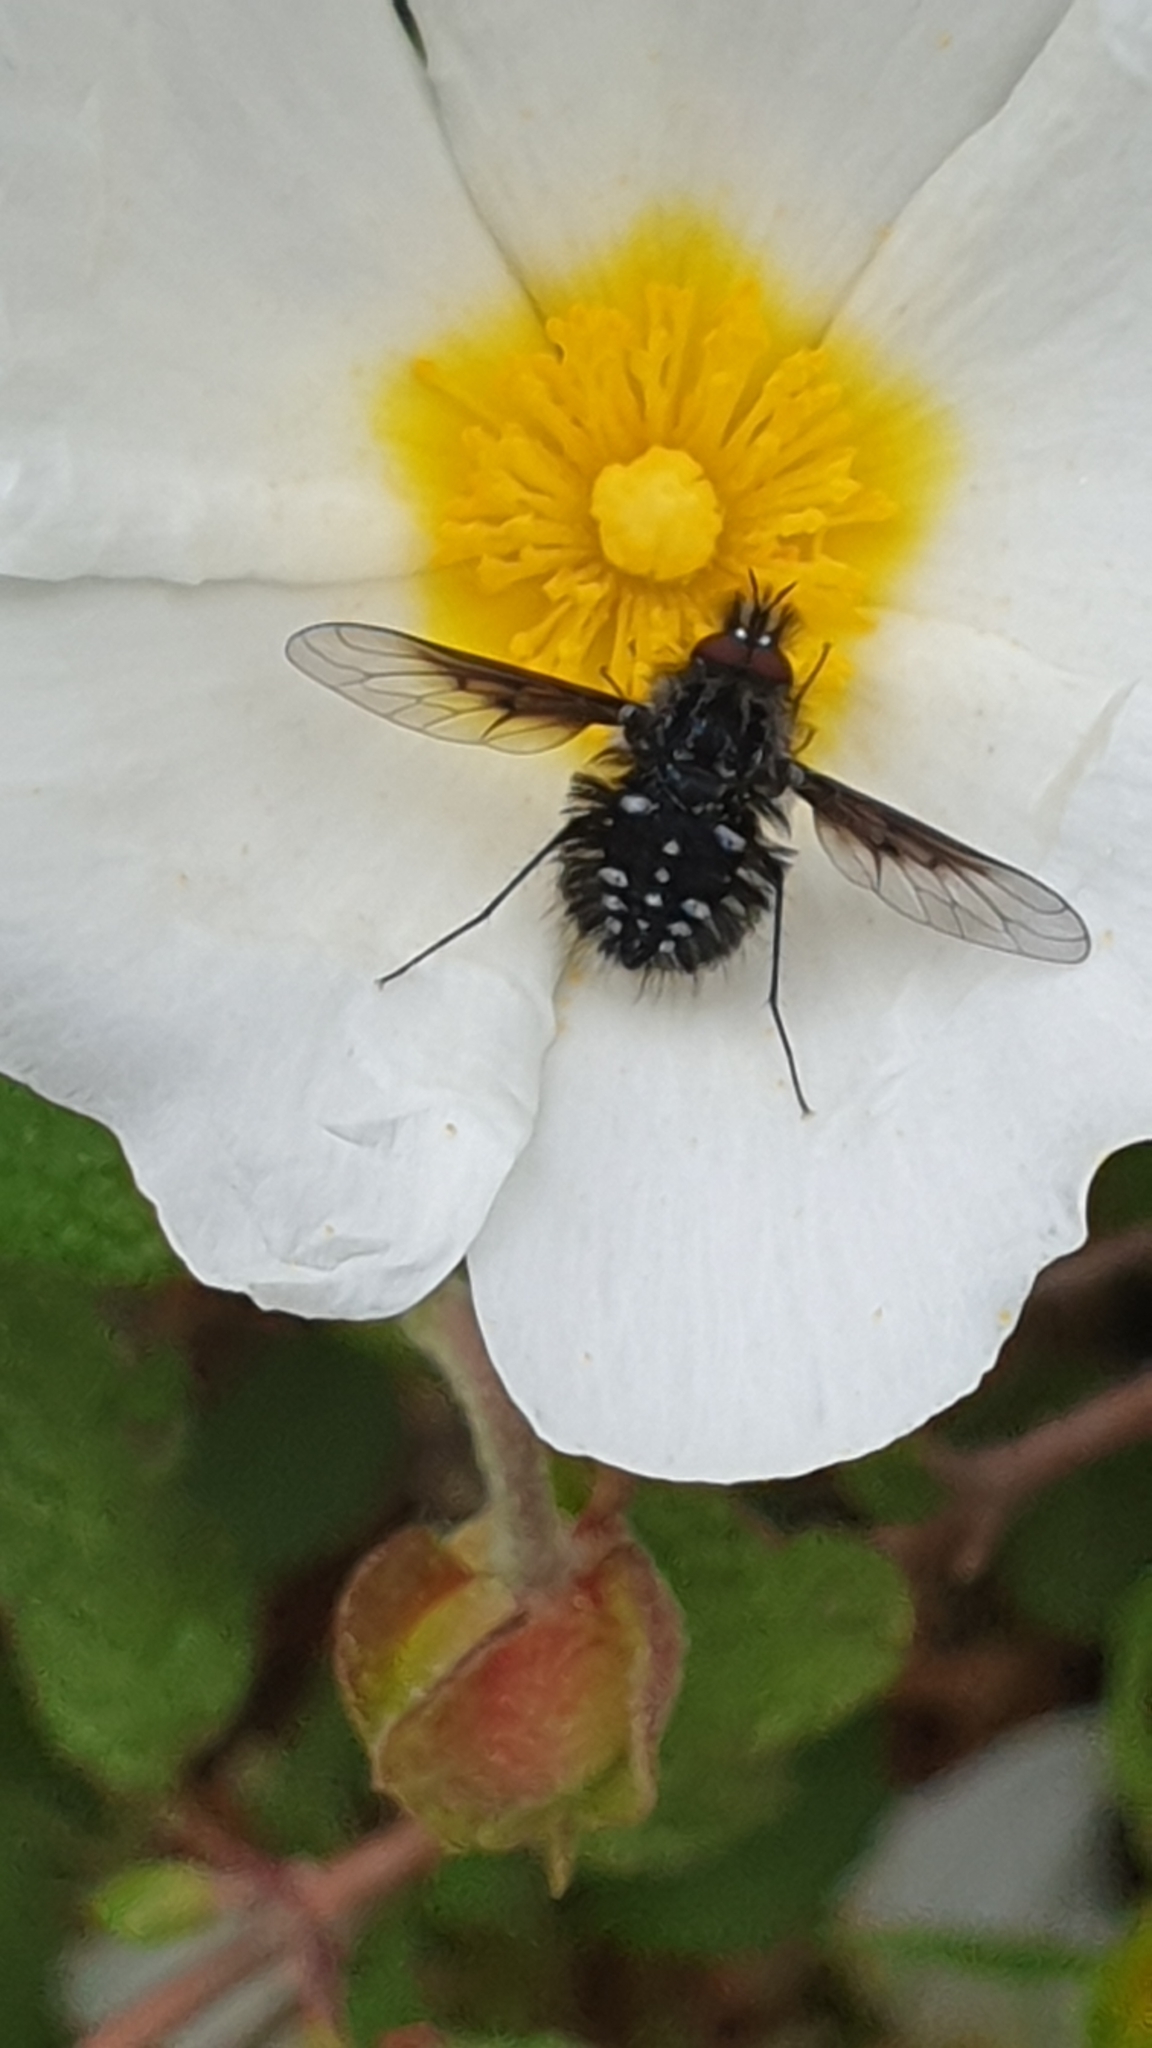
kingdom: Animalia
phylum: Arthropoda
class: Insecta
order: Diptera
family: Bombyliidae
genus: Bombylella
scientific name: Bombylella atra
